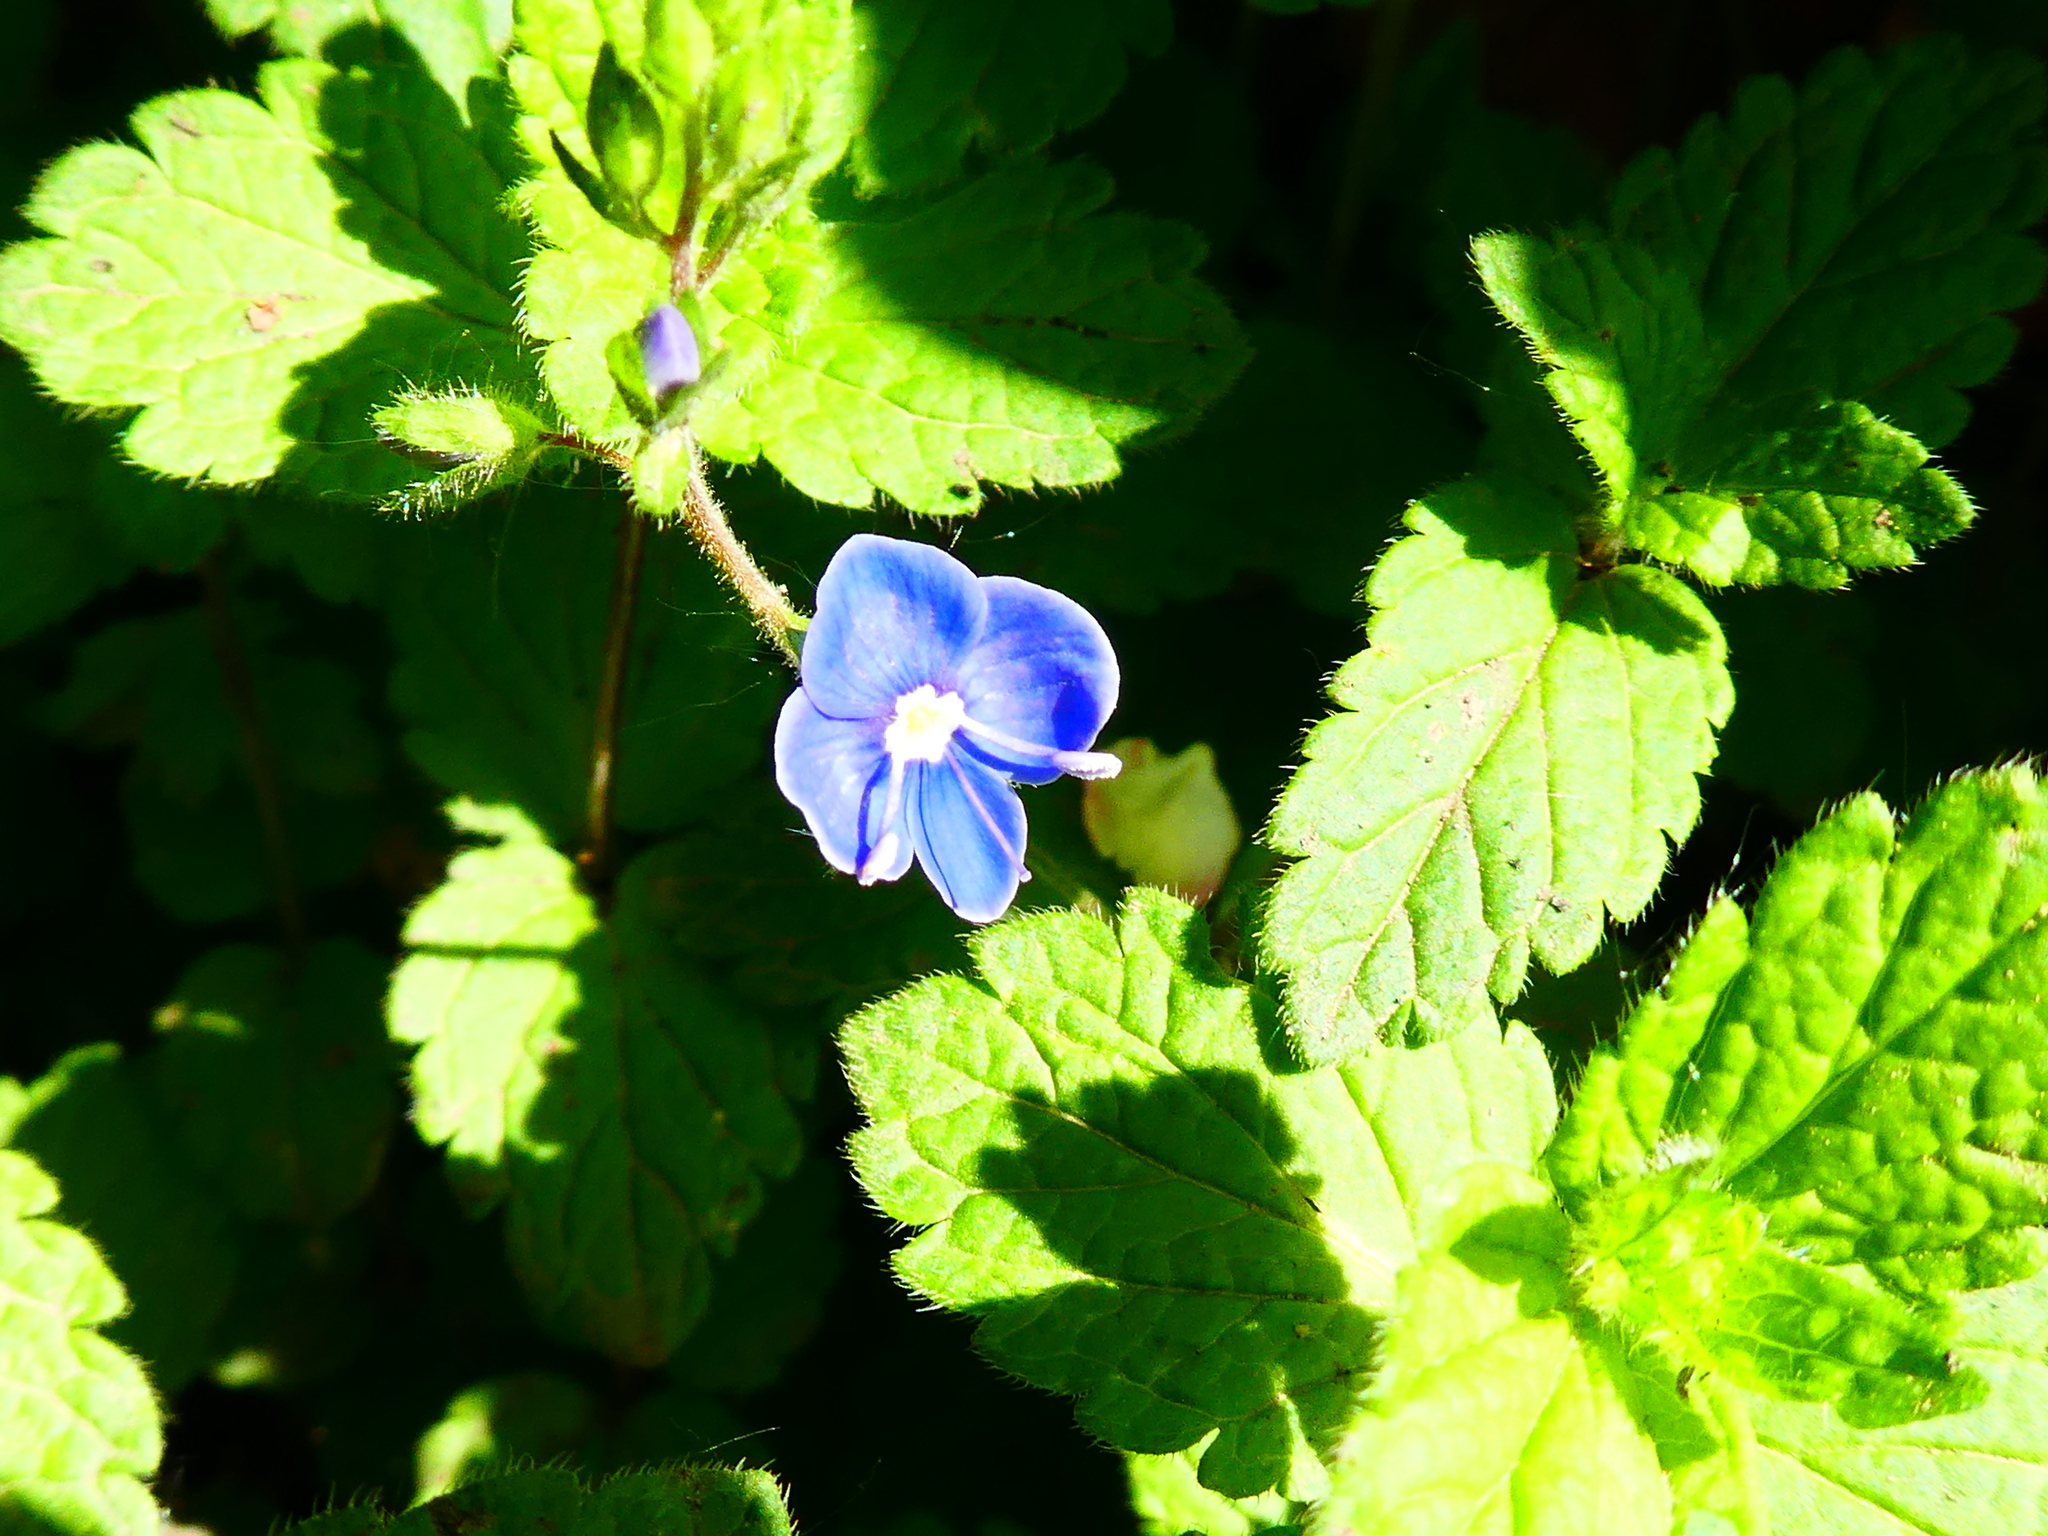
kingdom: Plantae
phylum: Tracheophyta
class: Magnoliopsida
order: Lamiales
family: Plantaginaceae
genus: Veronica
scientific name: Veronica chamaedrys
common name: Germander speedwell
